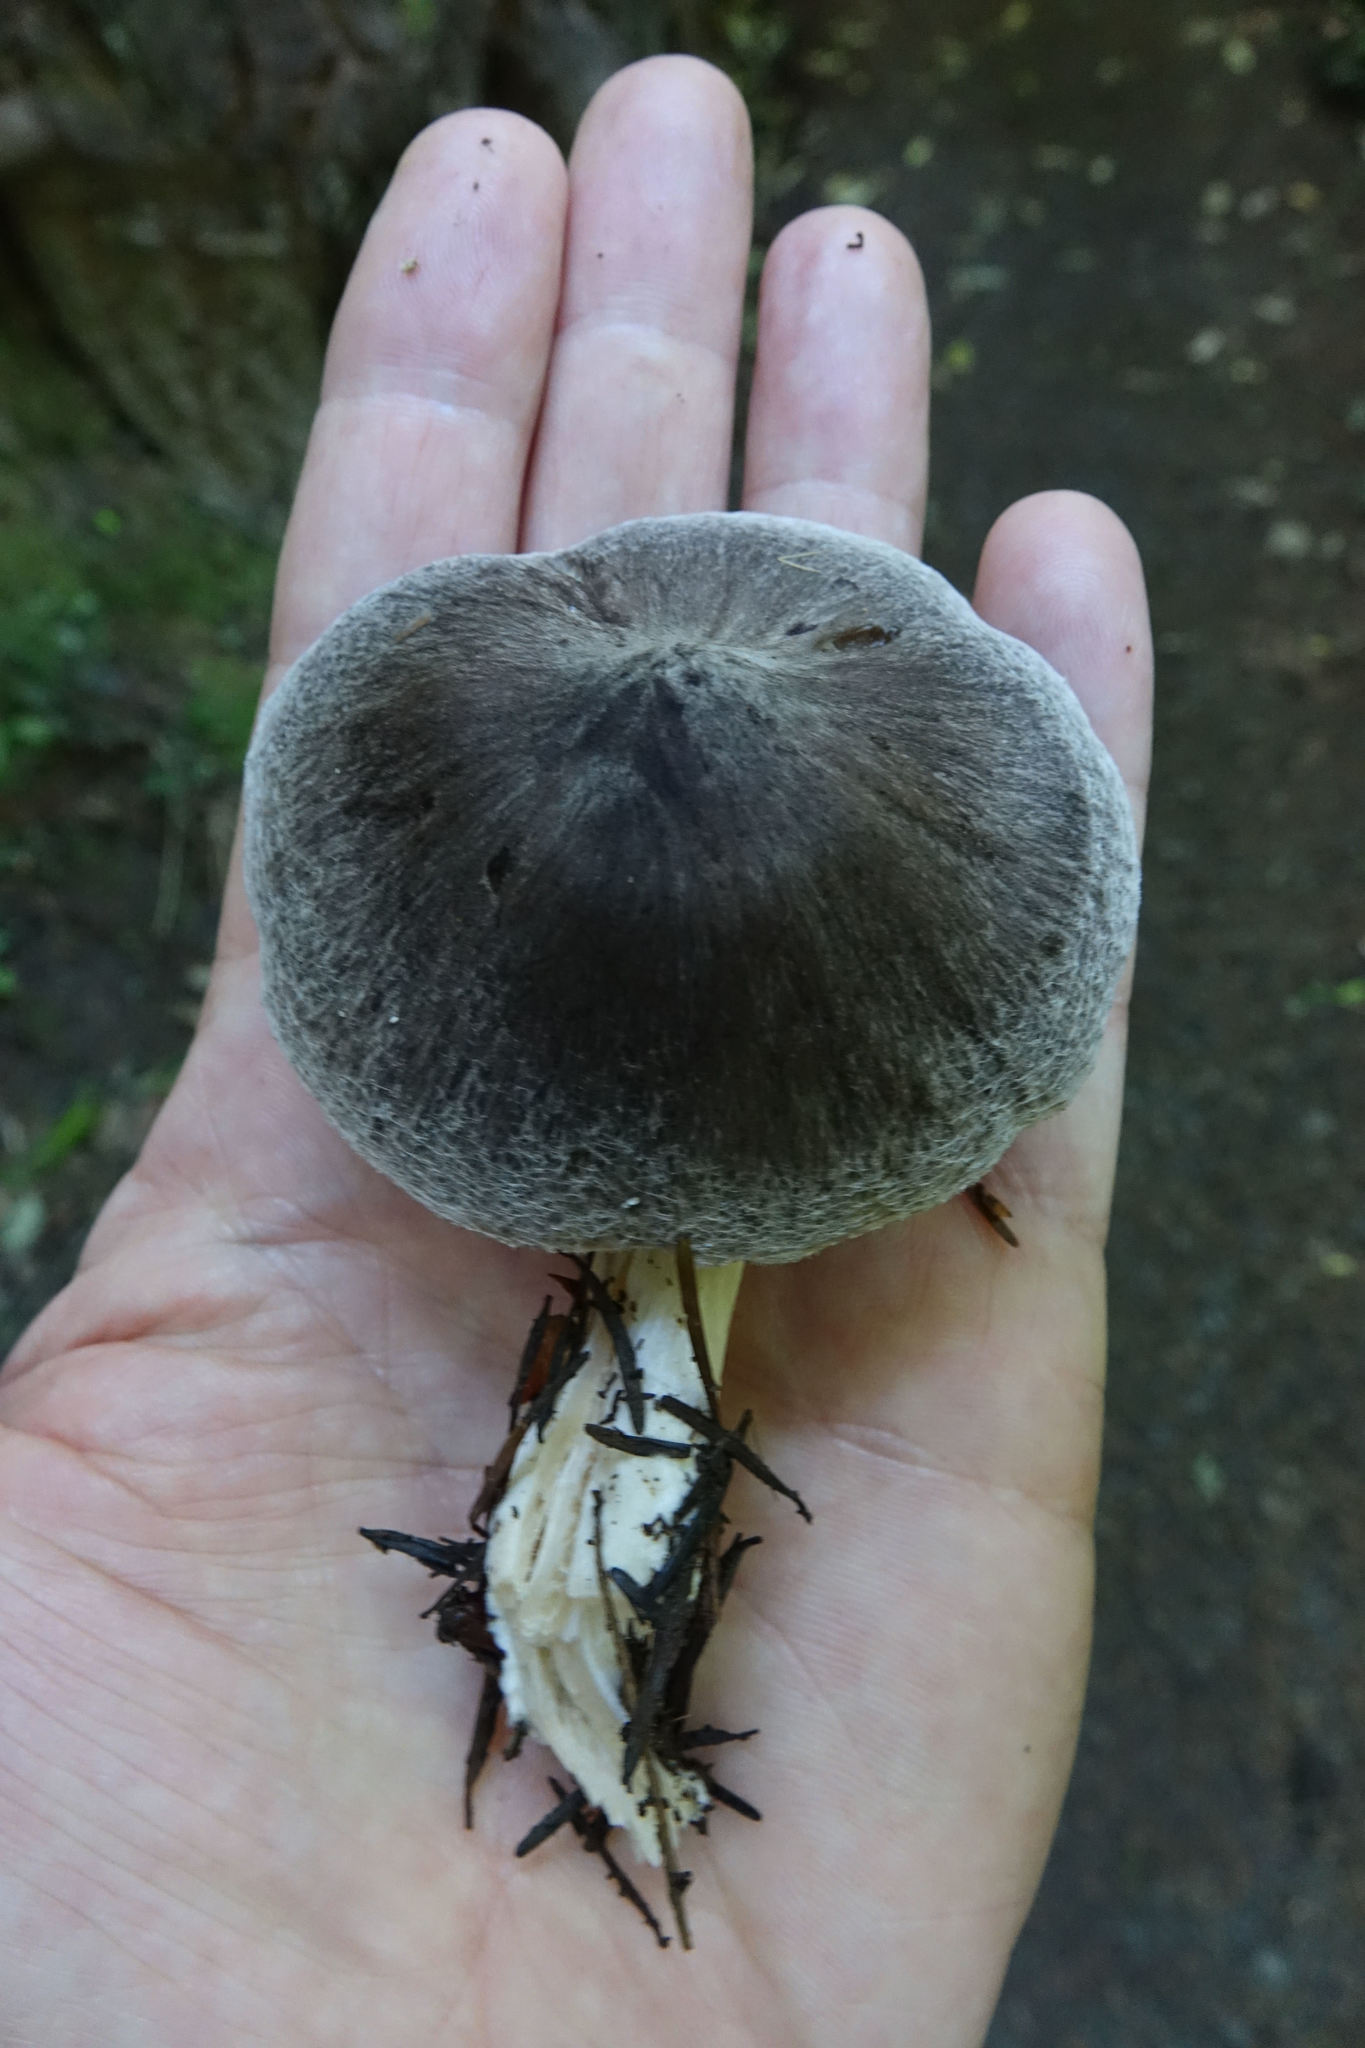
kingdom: Fungi
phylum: Basidiomycota
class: Agaricomycetes
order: Agaricales
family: Tricholomataceae
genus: Tricholoma
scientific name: Tricholoma terreum
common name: Grey knight
